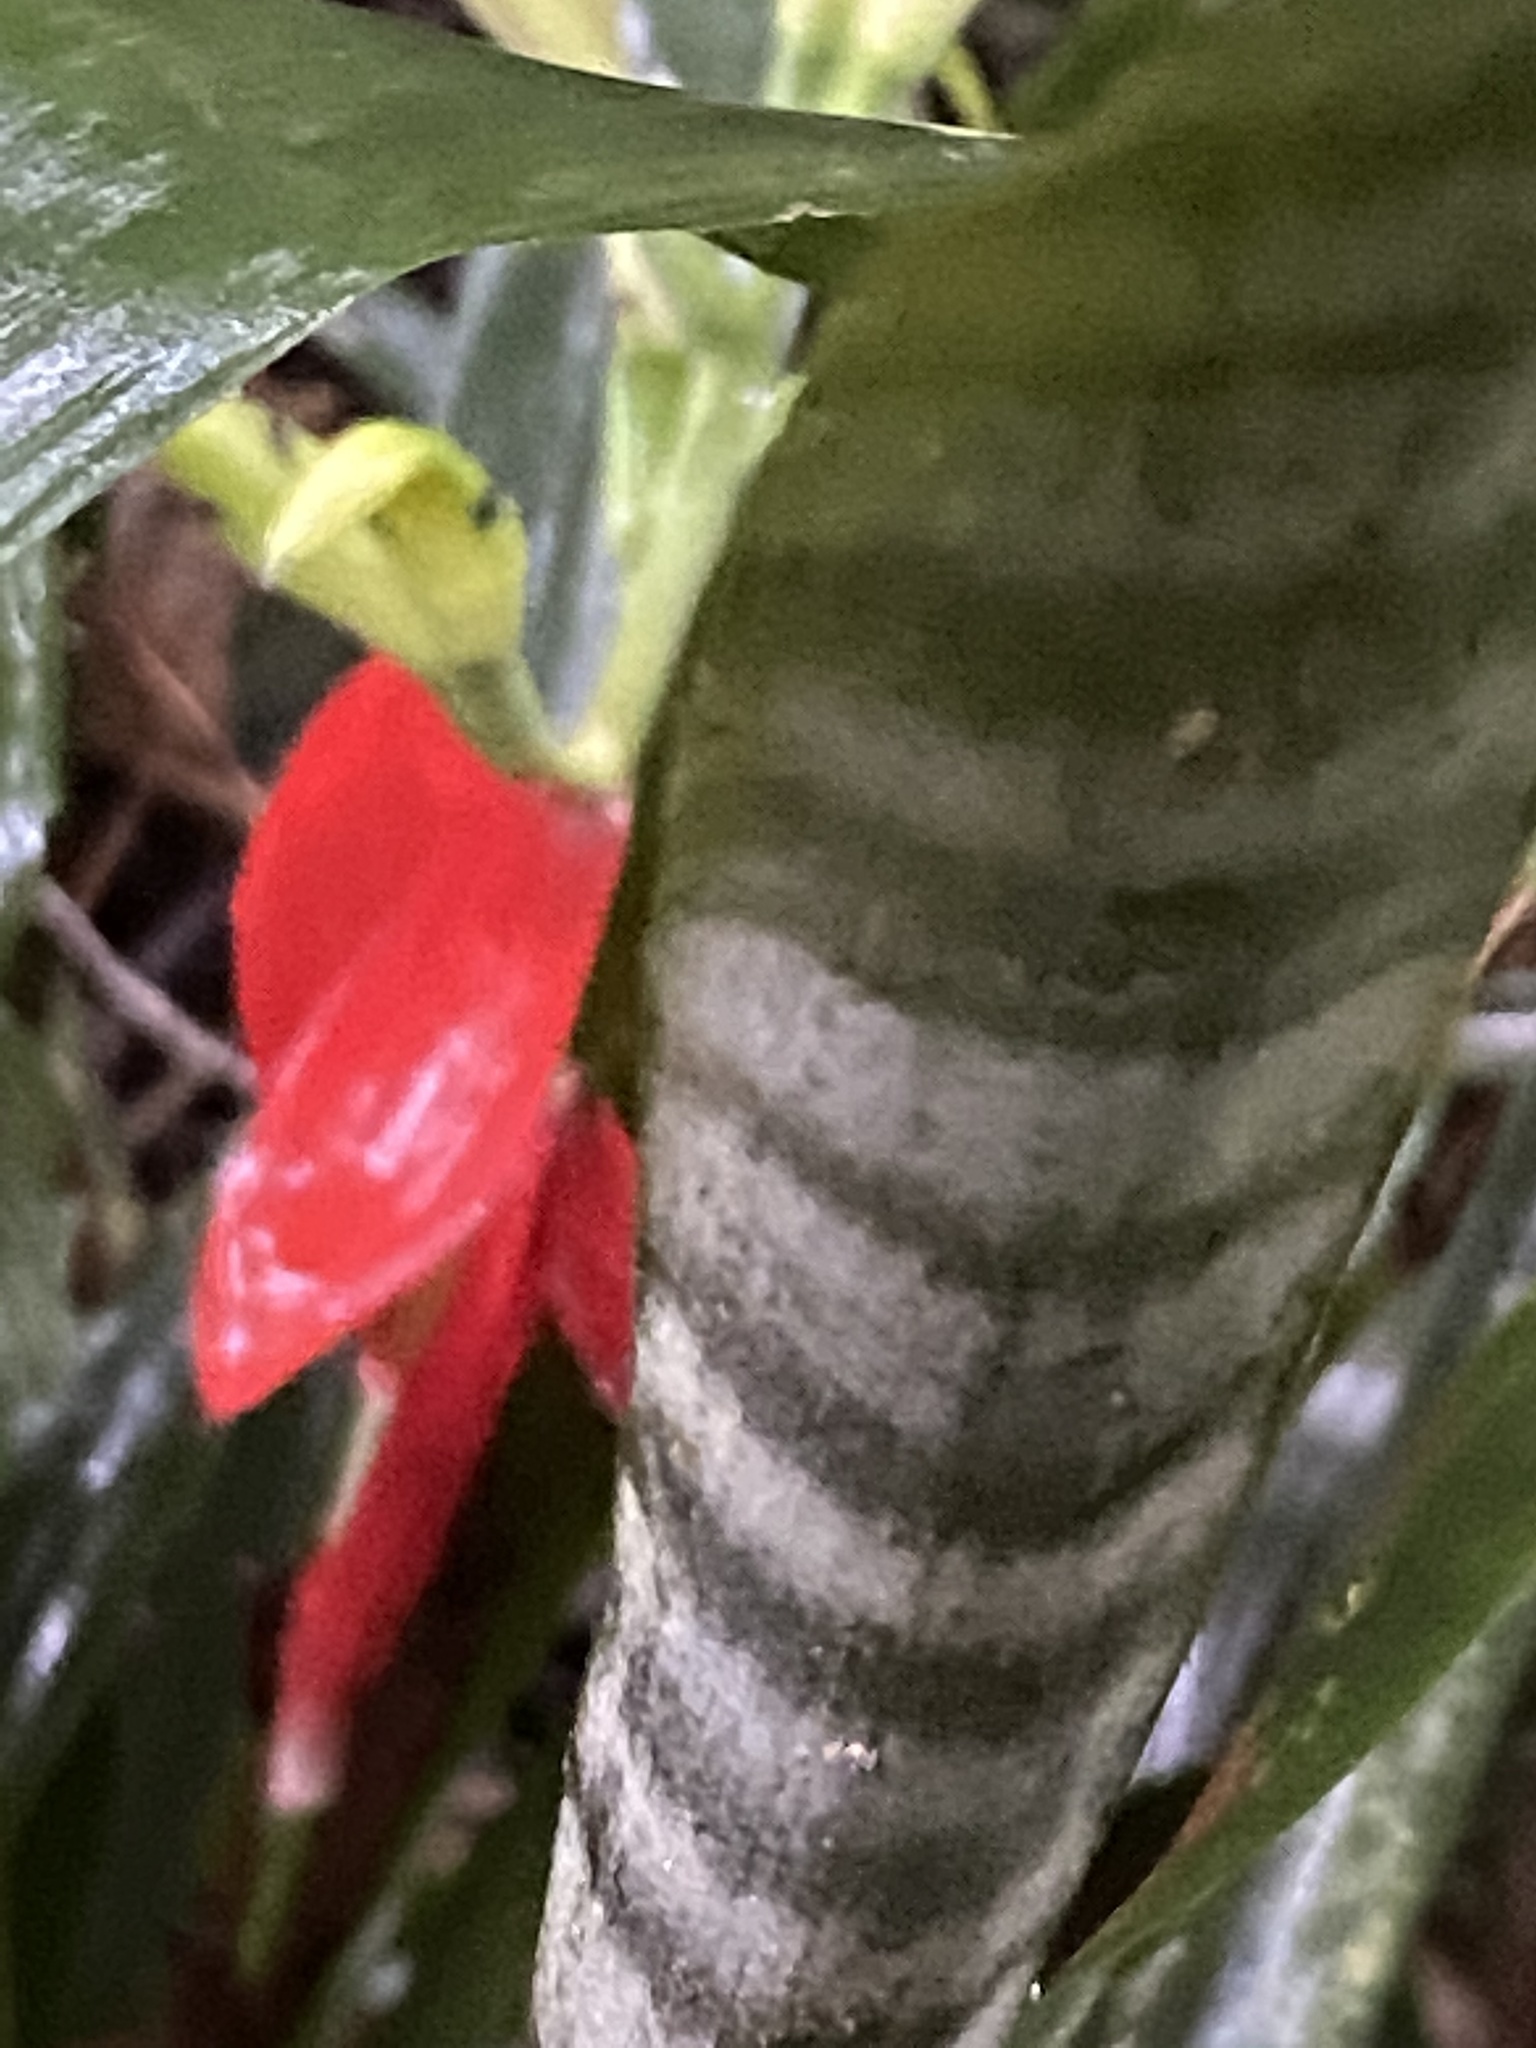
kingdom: Plantae
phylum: Tracheophyta
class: Liliopsida
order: Poales
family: Bromeliaceae
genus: Billbergia
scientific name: Billbergia amoena
